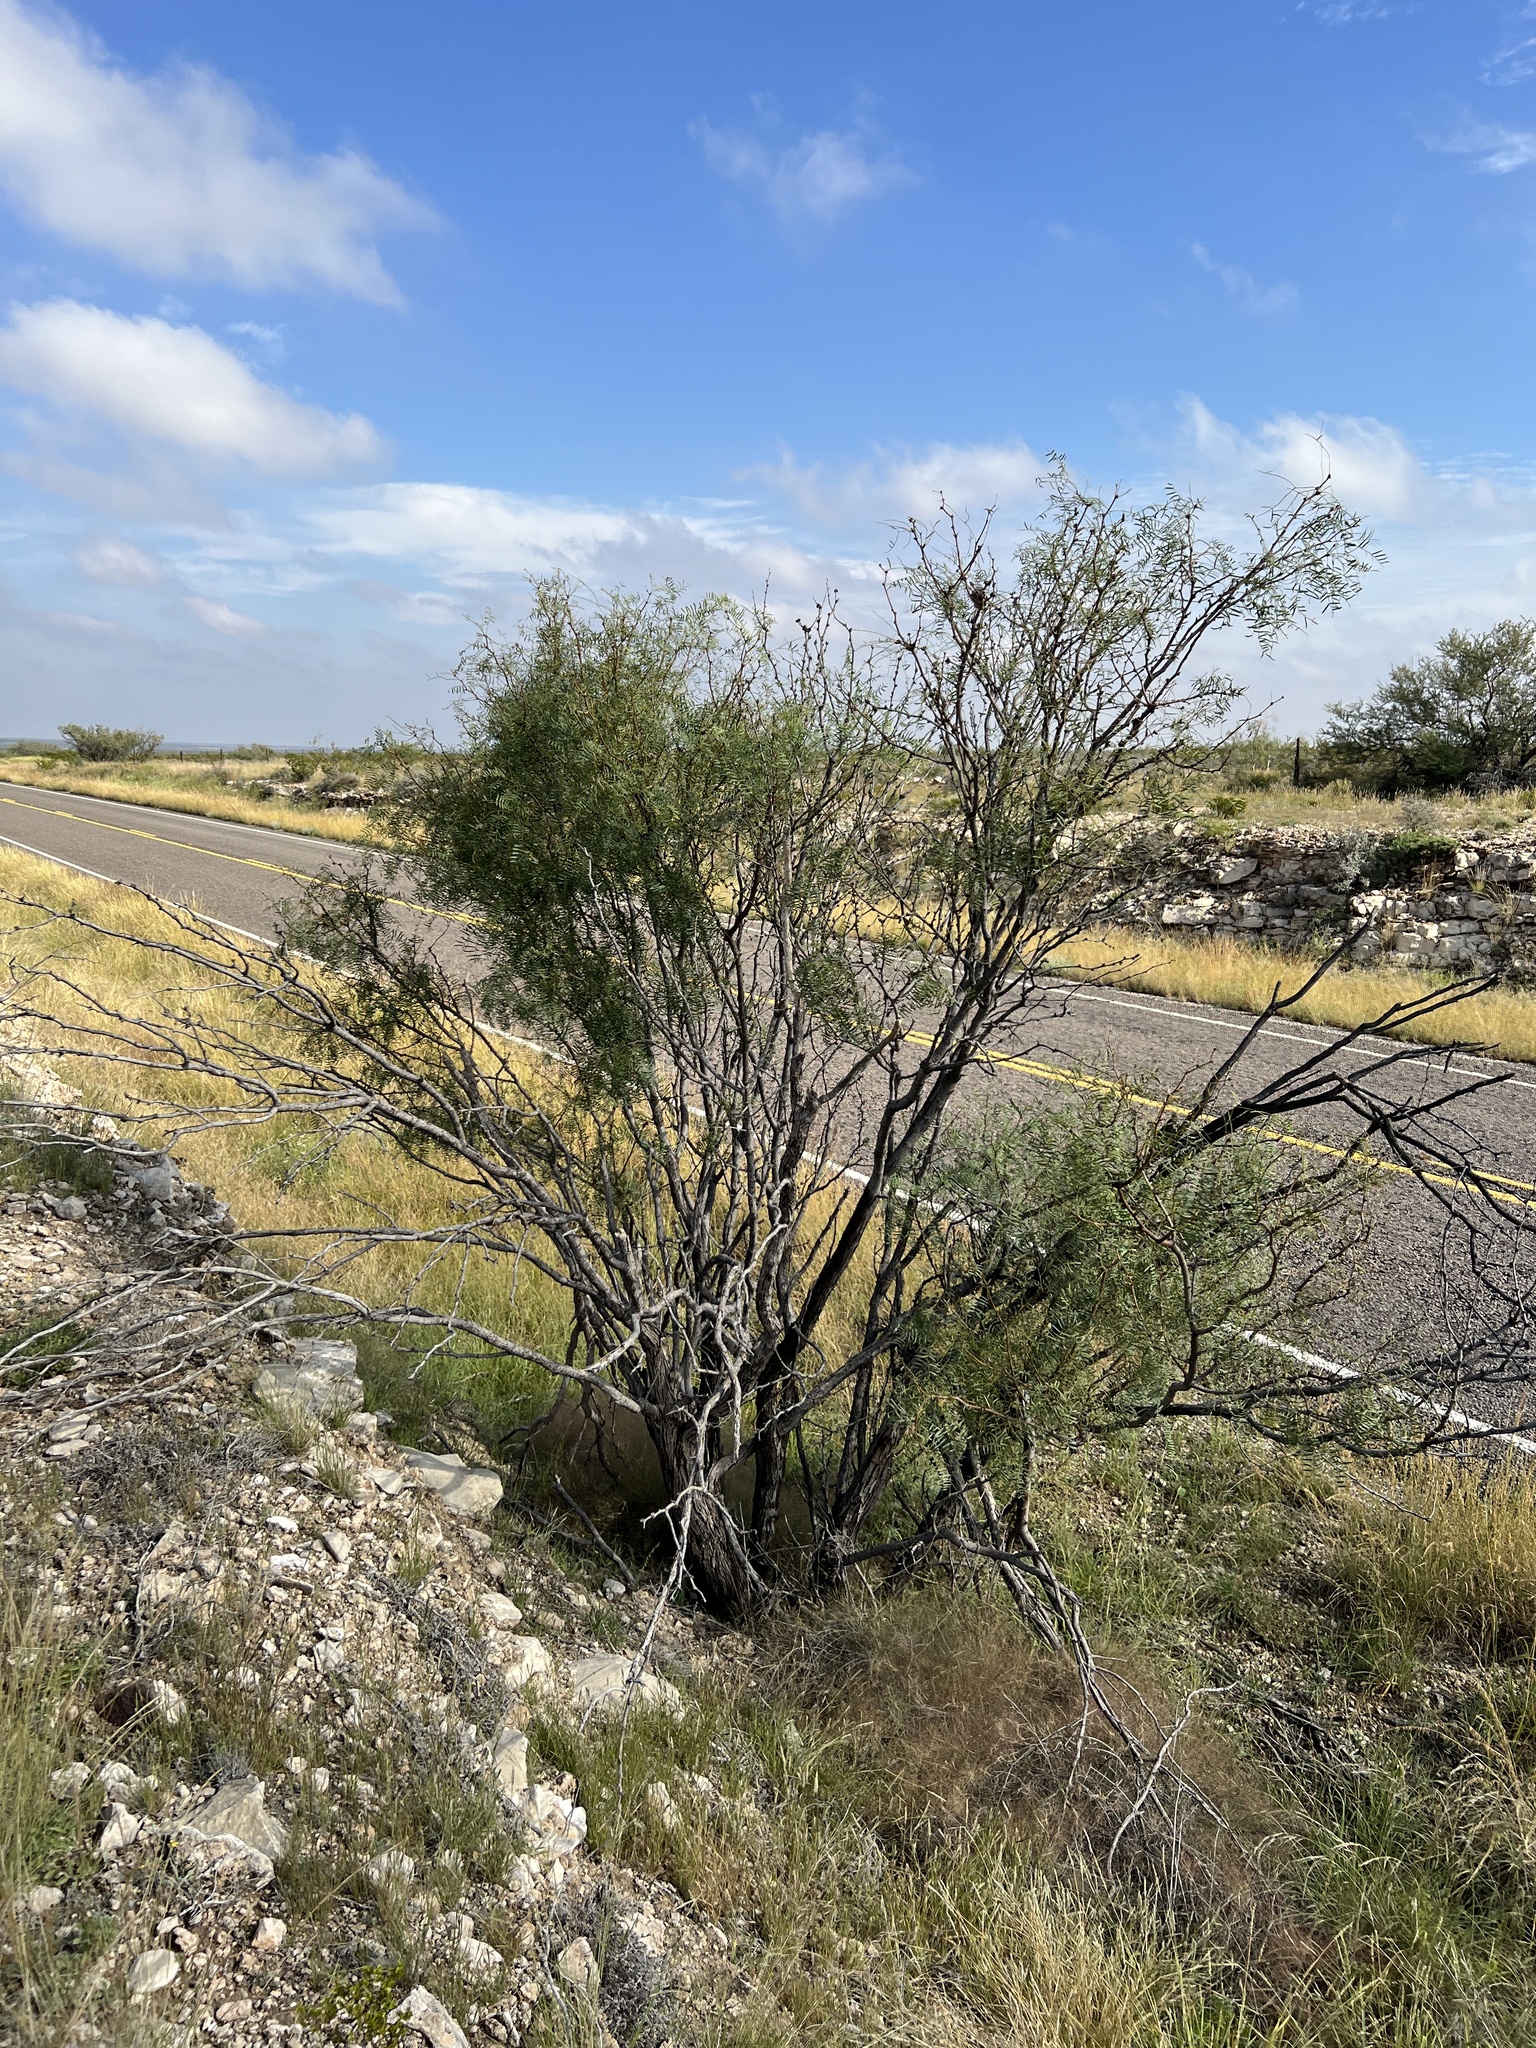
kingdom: Plantae
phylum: Tracheophyta
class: Magnoliopsida
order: Fabales
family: Fabaceae
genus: Prosopis
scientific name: Prosopis glandulosa
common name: Honey mesquite
